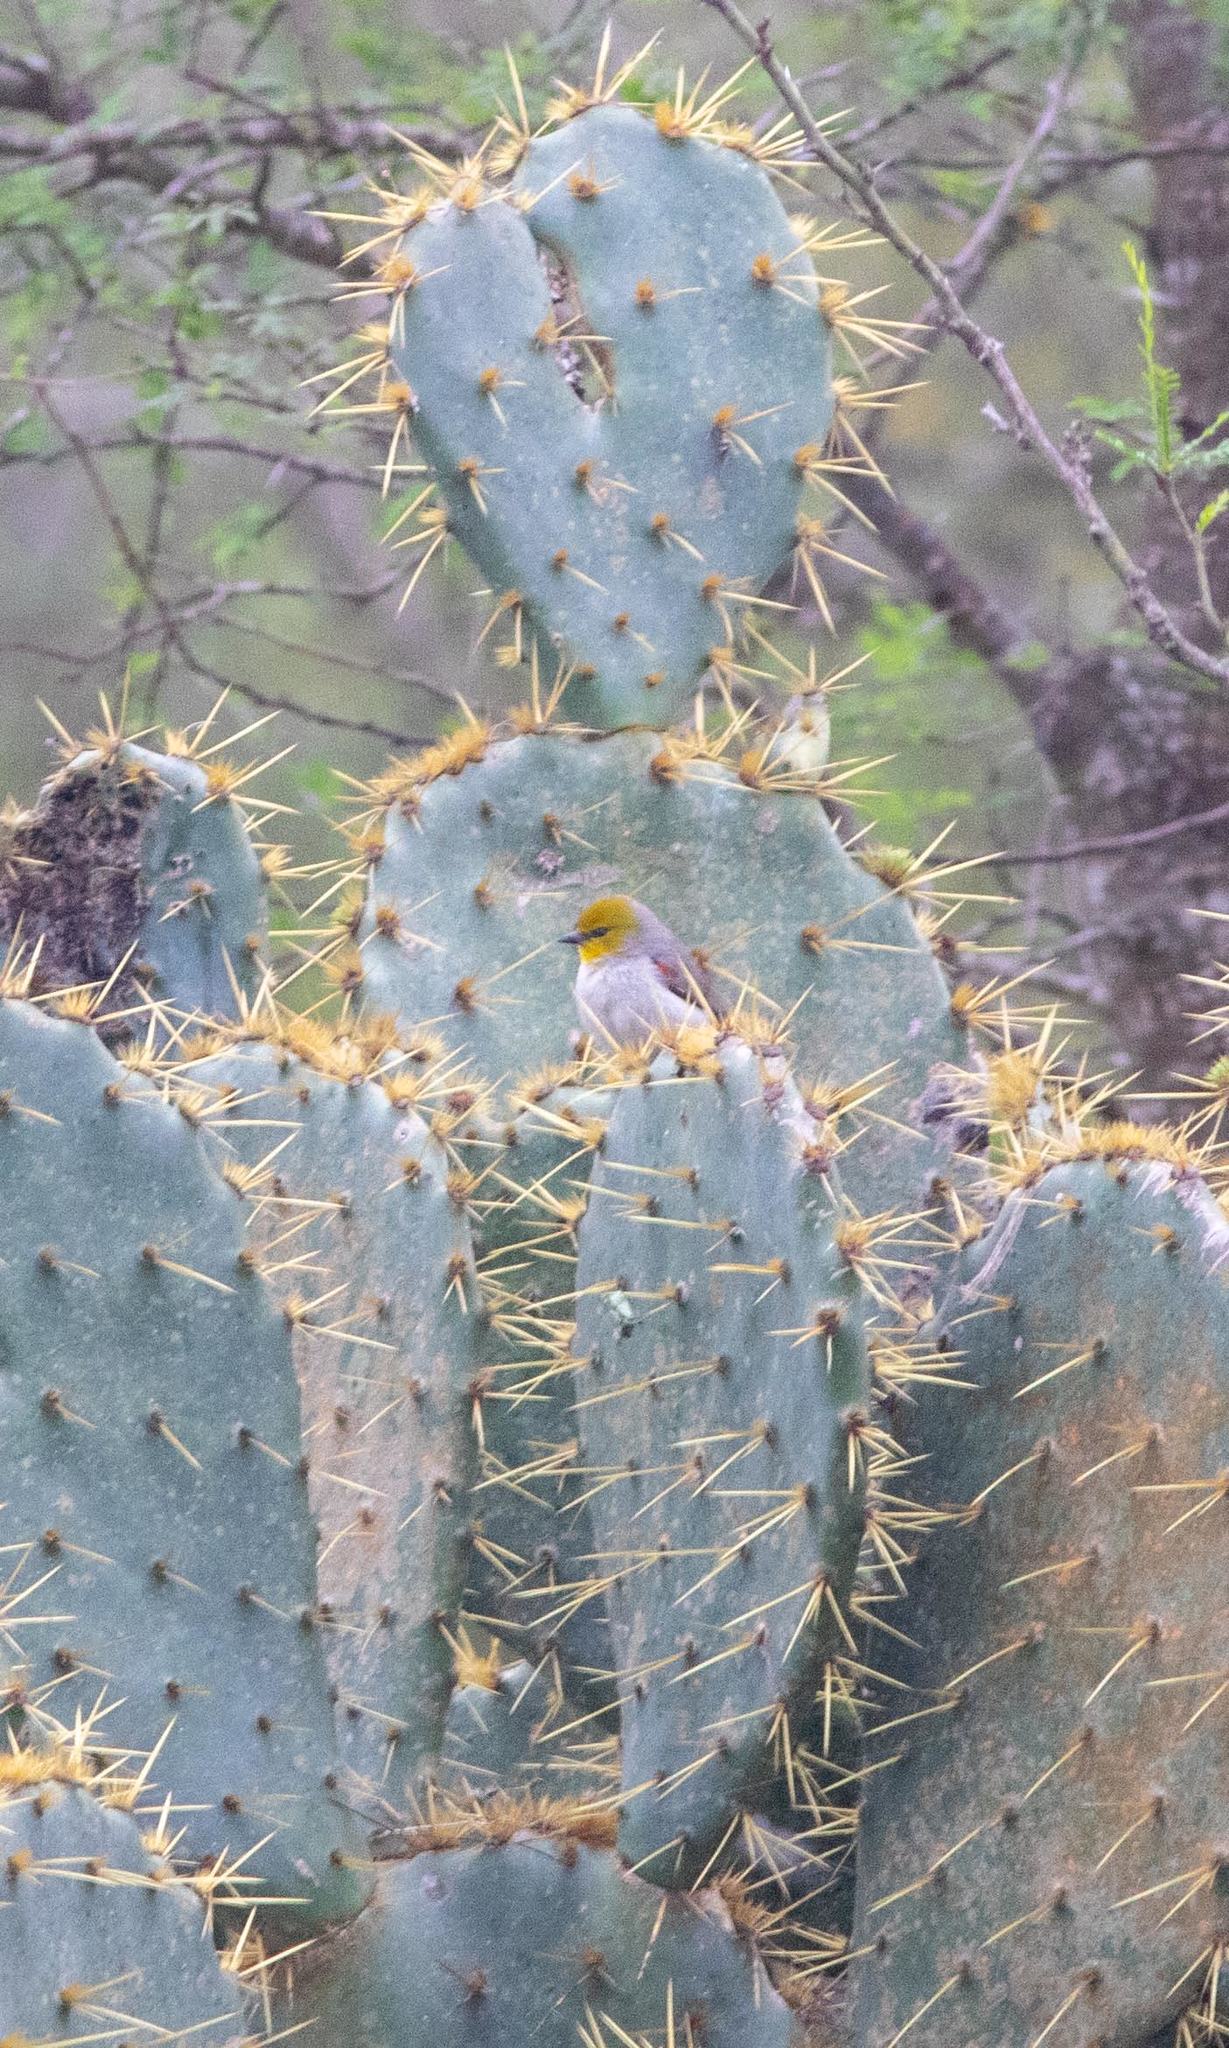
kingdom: Animalia
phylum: Chordata
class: Aves
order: Passeriformes
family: Remizidae
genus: Auriparus
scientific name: Auriparus flaviceps
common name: Verdin
